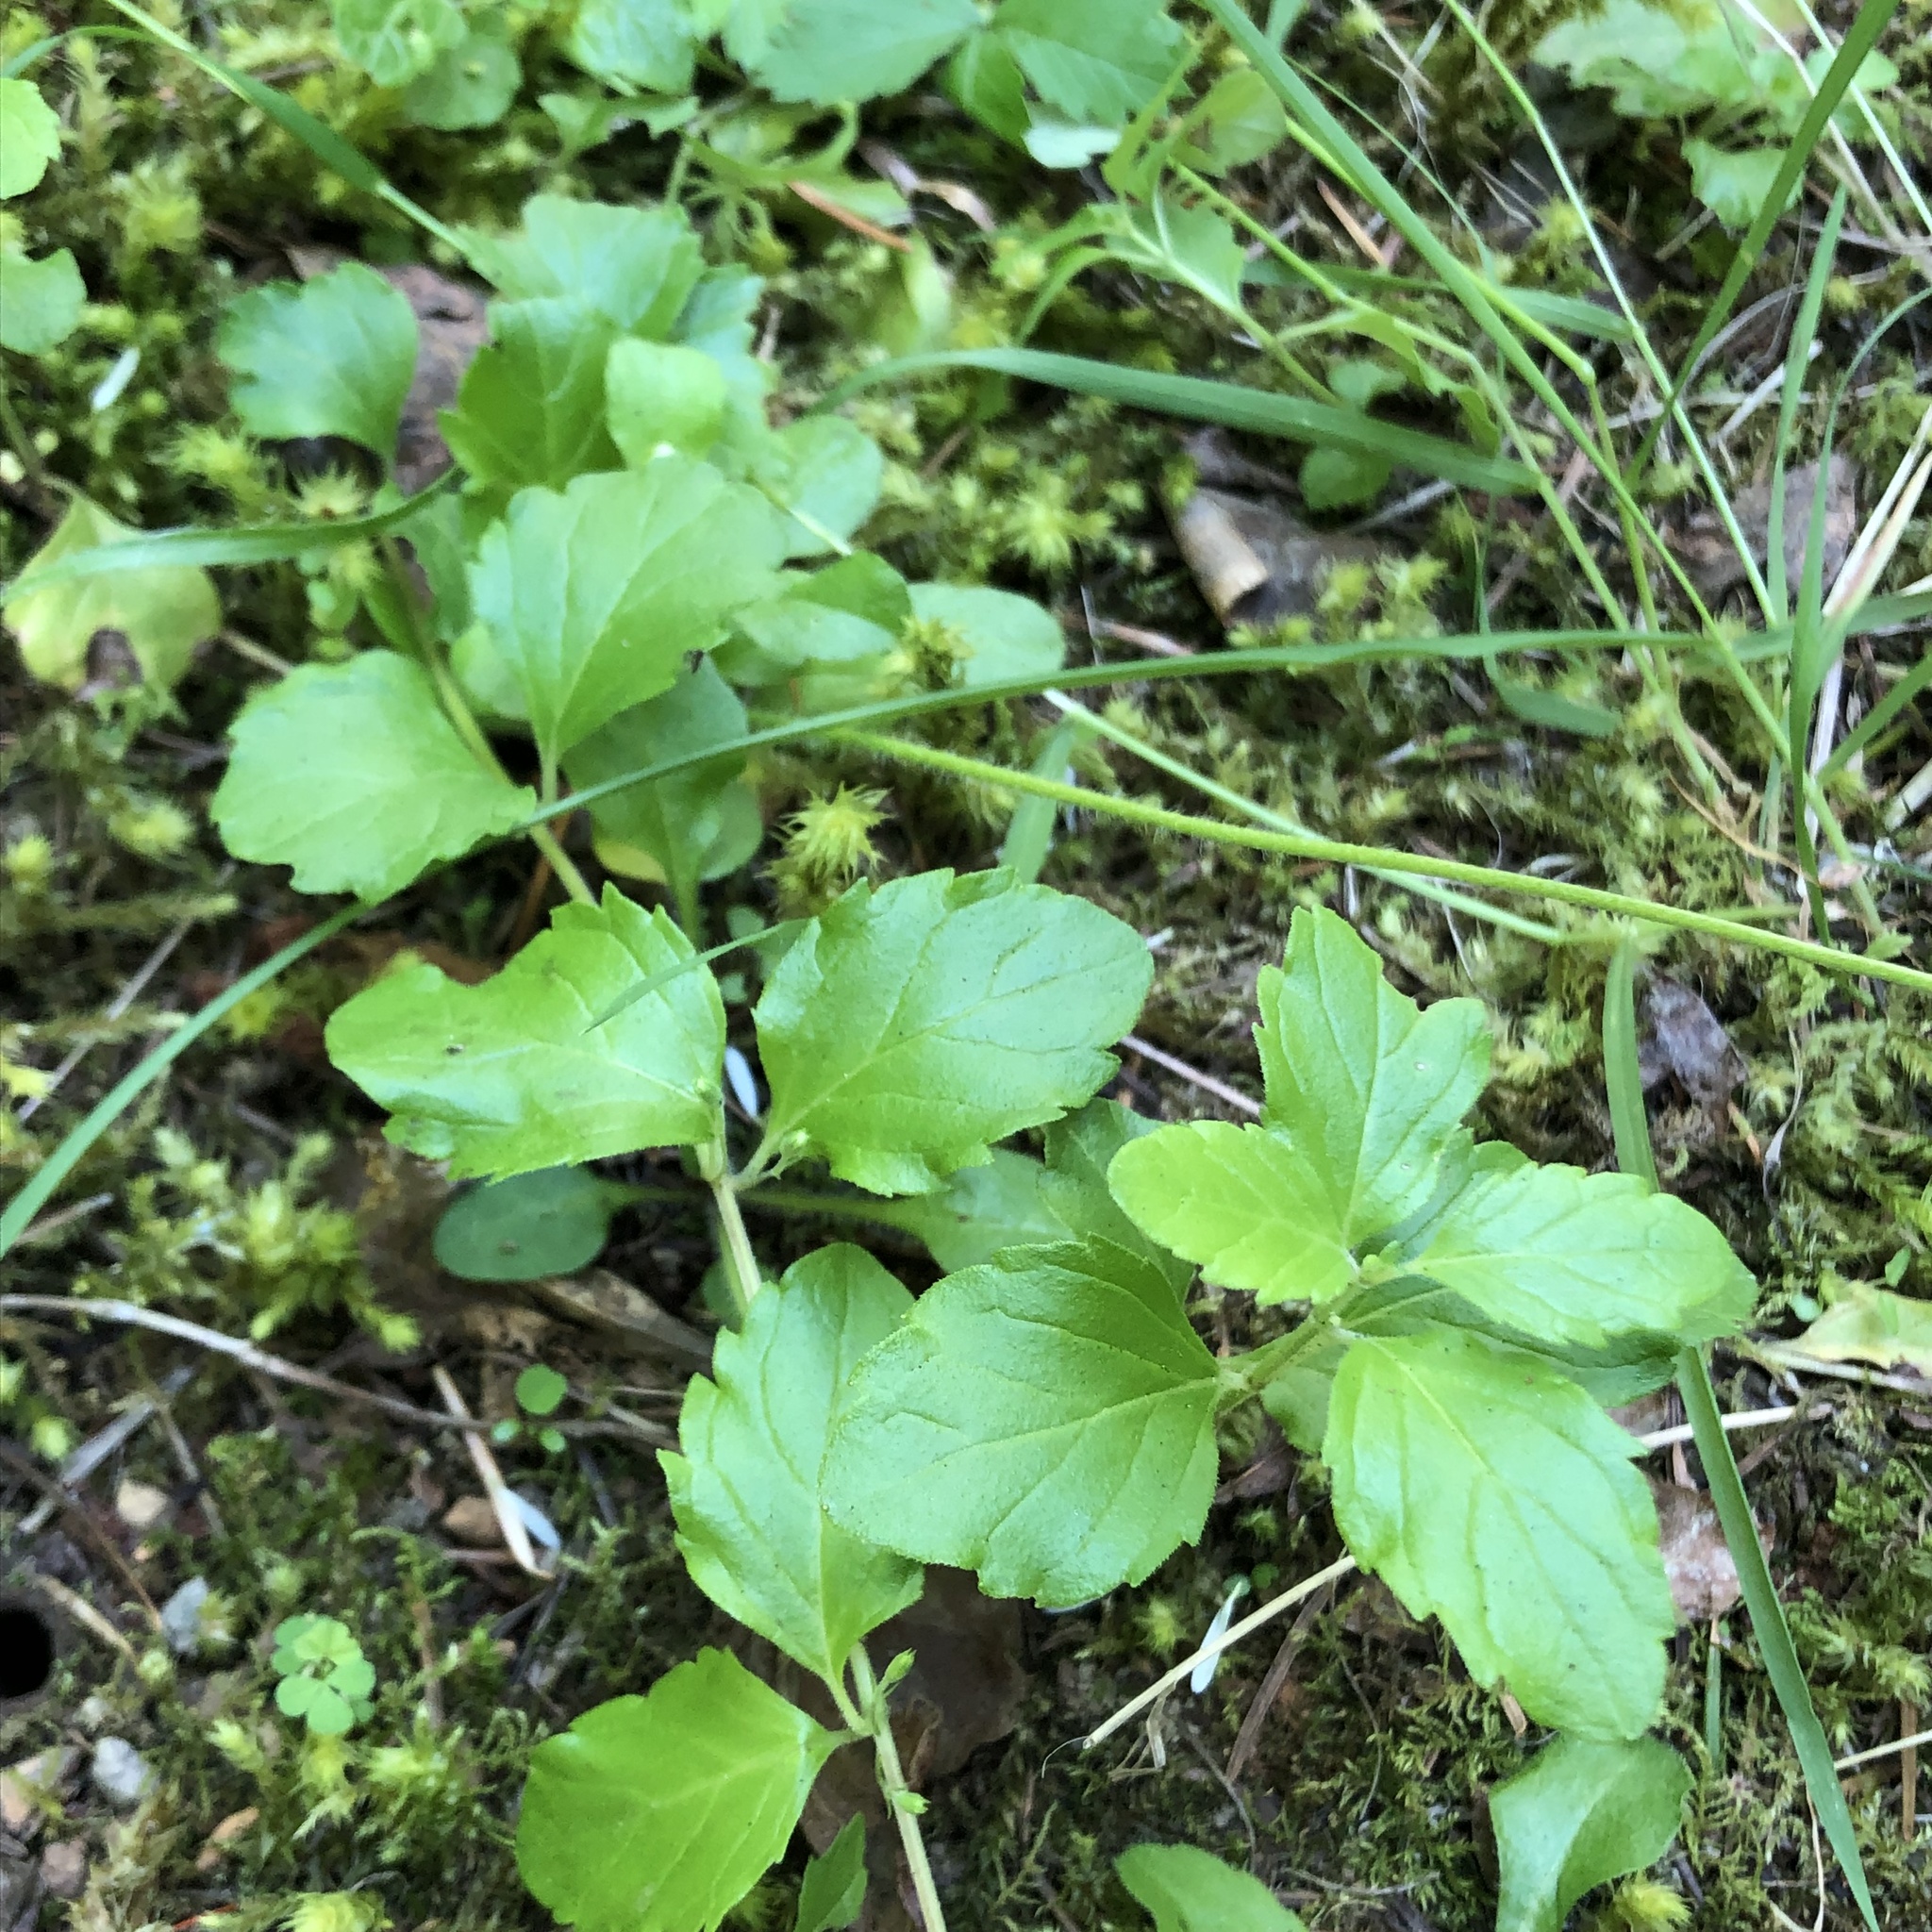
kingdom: Plantae
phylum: Tracheophyta
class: Magnoliopsida
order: Lamiales
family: Lamiaceae
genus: Micromeria
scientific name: Micromeria douglasii
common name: Yerba buena
